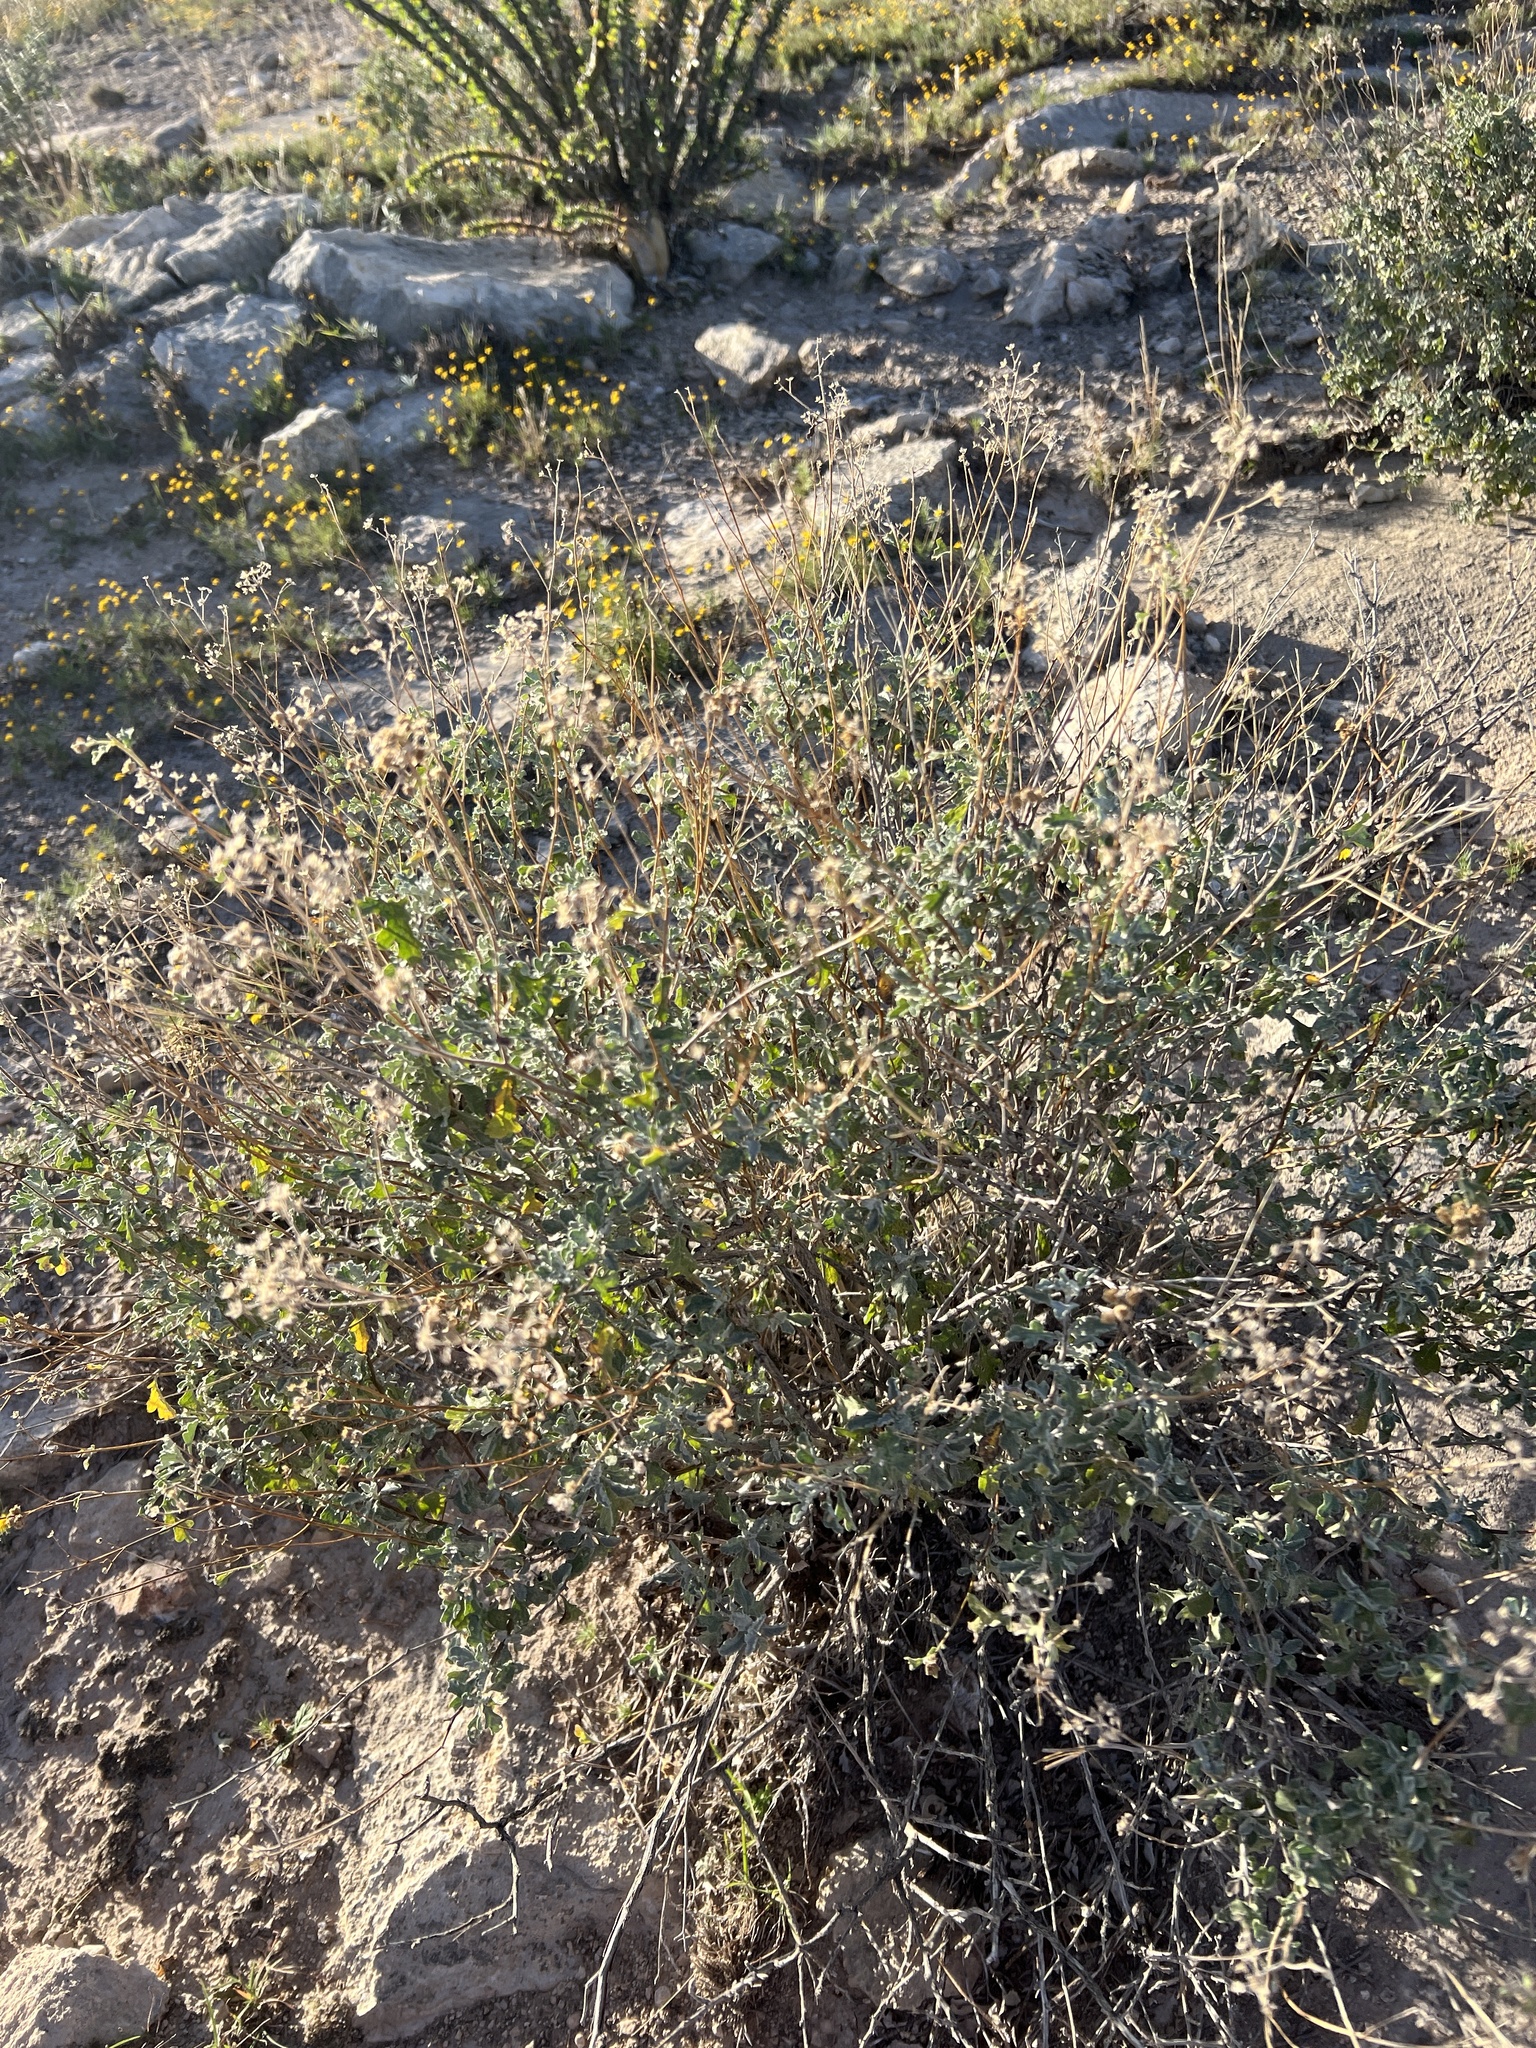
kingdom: Plantae
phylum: Tracheophyta
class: Magnoliopsida
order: Asterales
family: Asteraceae
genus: Parthenium
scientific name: Parthenium incanum
